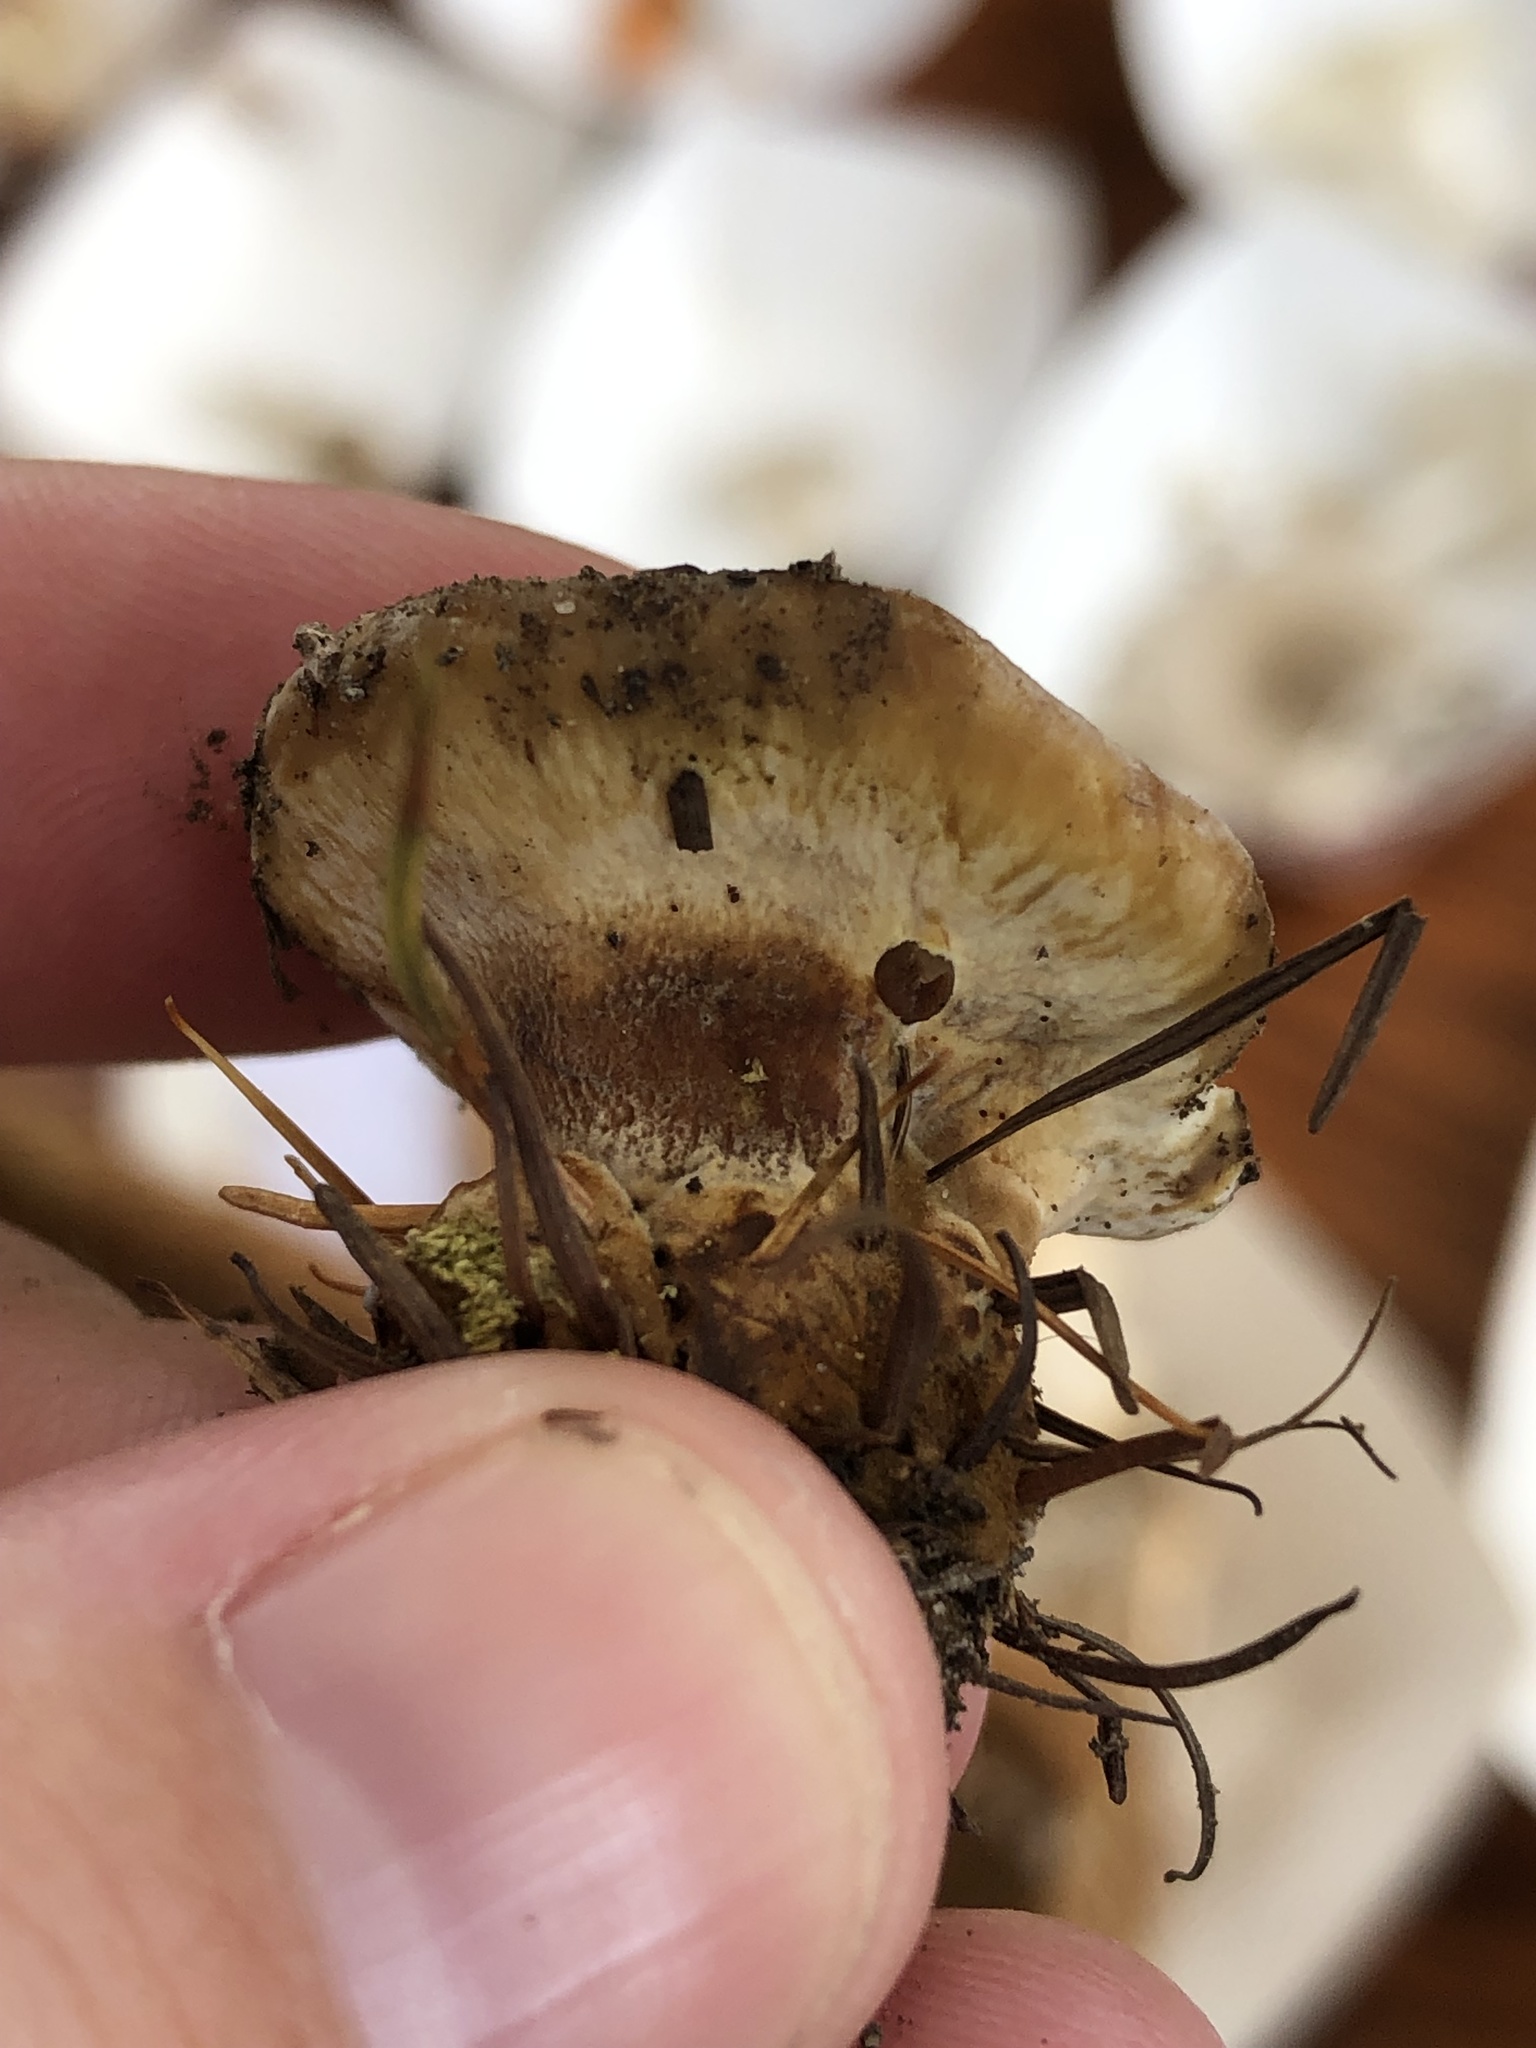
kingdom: Fungi
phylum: Basidiomycota
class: Agaricomycetes
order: Hymenochaetales
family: Hymenochaetaceae
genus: Onnia
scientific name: Onnia tomentosa
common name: Velvet rosette
